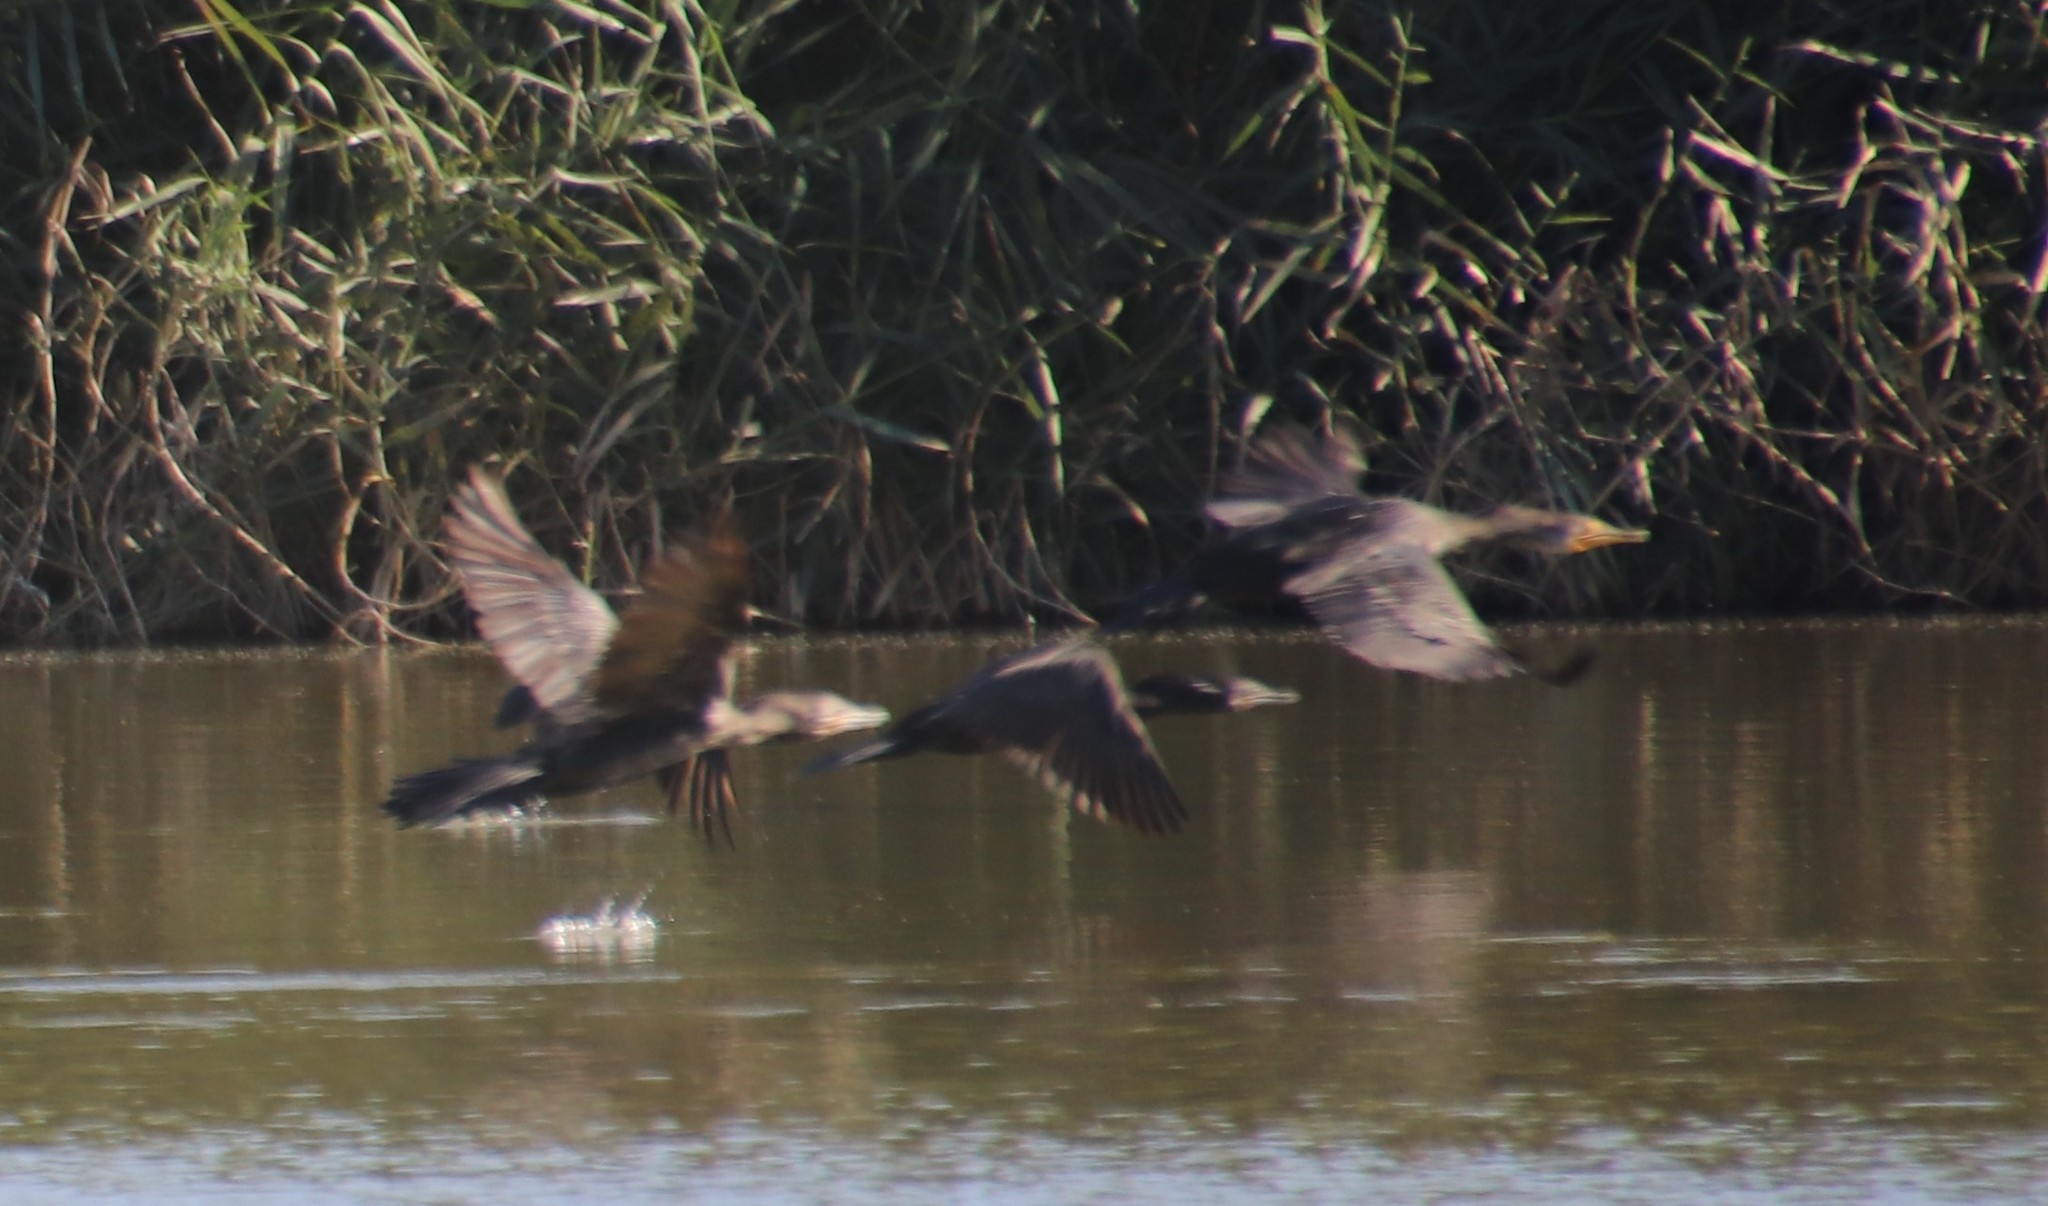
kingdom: Animalia
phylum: Chordata
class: Aves
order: Suliformes
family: Phalacrocoracidae
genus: Phalacrocorax
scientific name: Phalacrocorax brasilianus
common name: Neotropic cormorant
